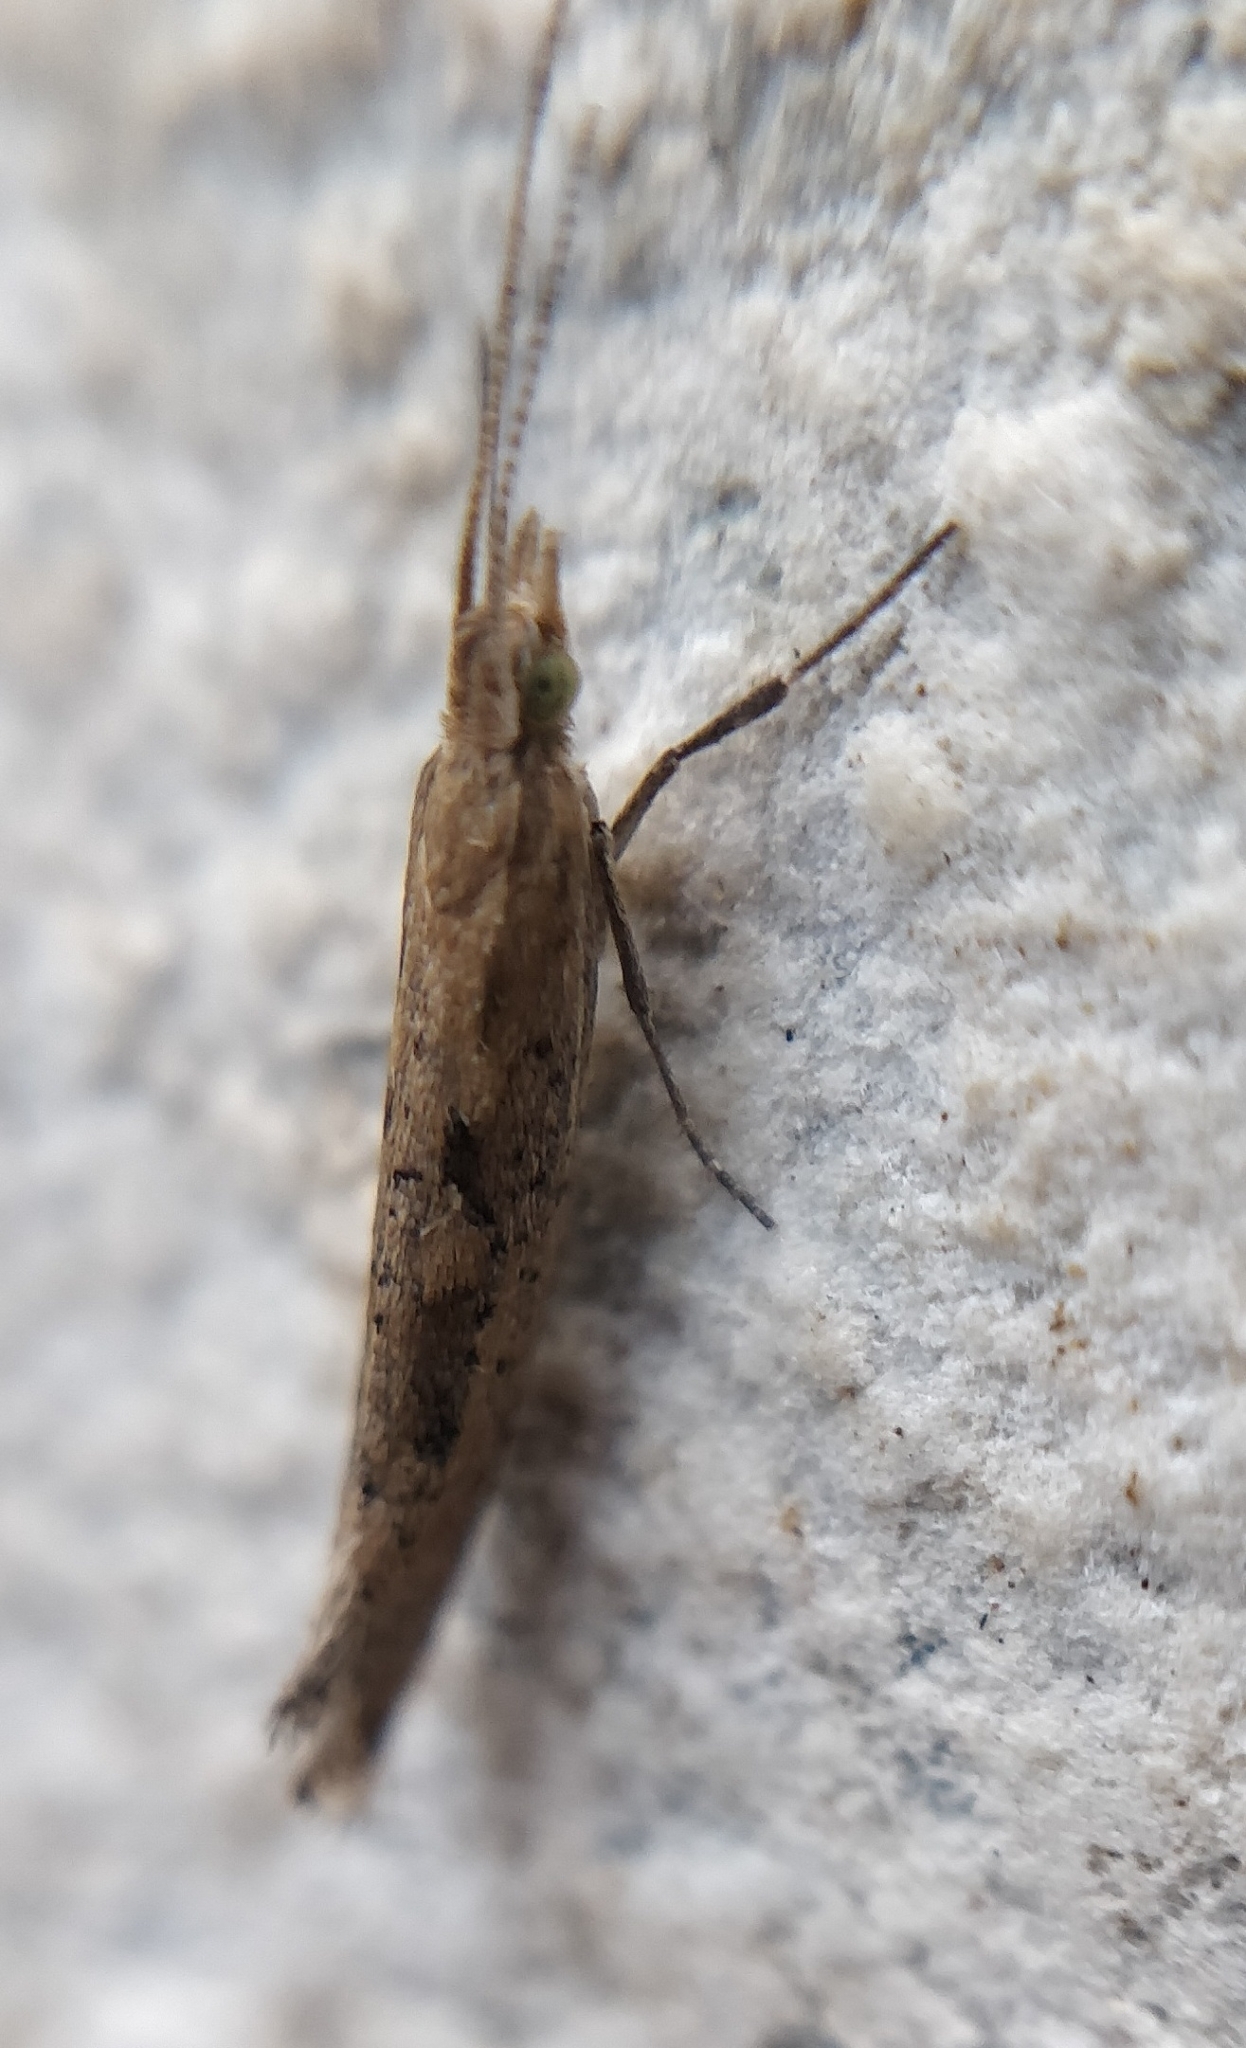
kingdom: Animalia
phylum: Arthropoda
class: Insecta
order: Lepidoptera
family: Plutellidae
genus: Plutella
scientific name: Plutella xylostella
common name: Diamond-back moth
